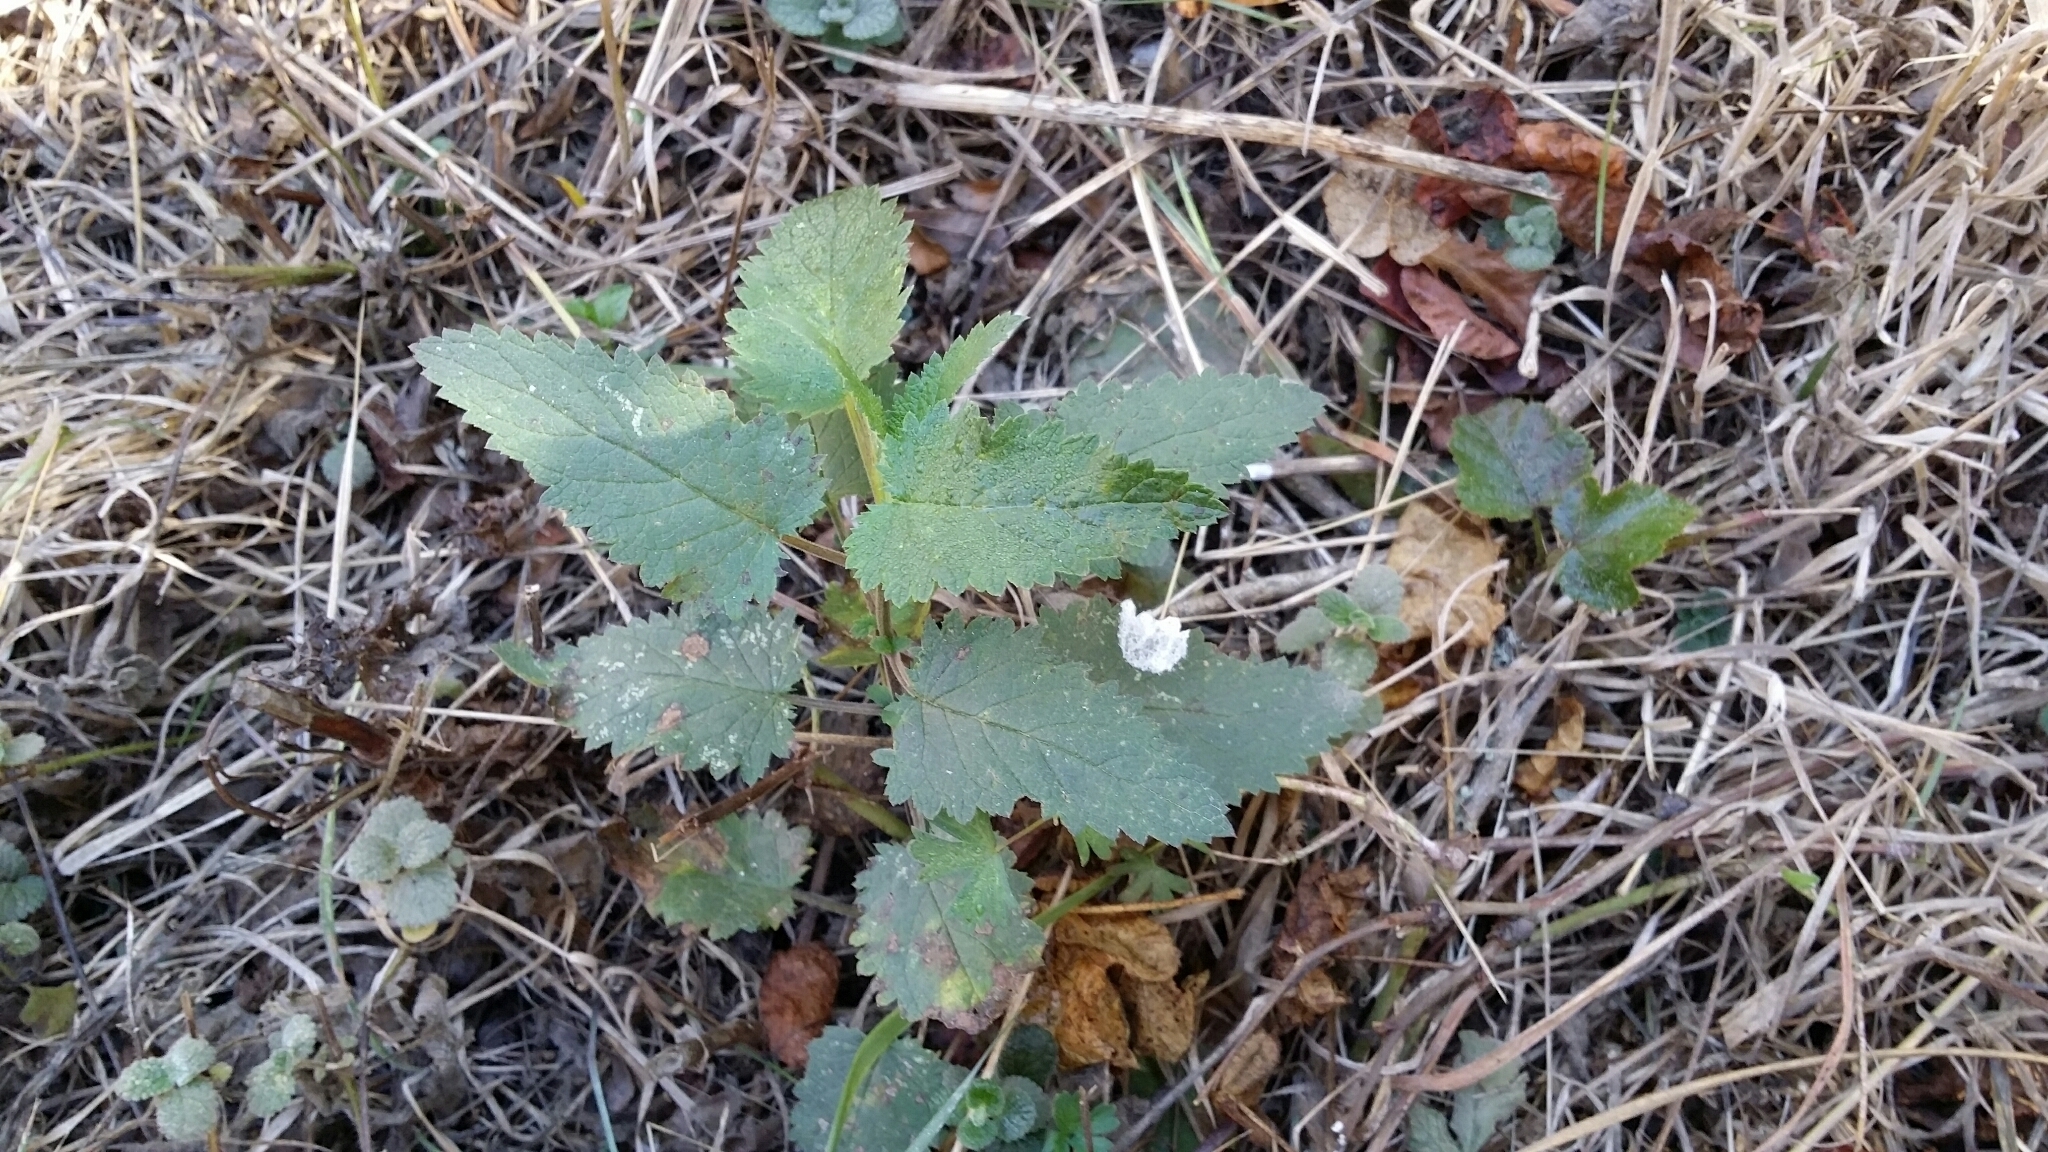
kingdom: Plantae
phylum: Tracheophyta
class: Magnoliopsida
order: Lamiales
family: Scrophulariaceae
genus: Scrophularia
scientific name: Scrophularia californica
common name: California figwort
